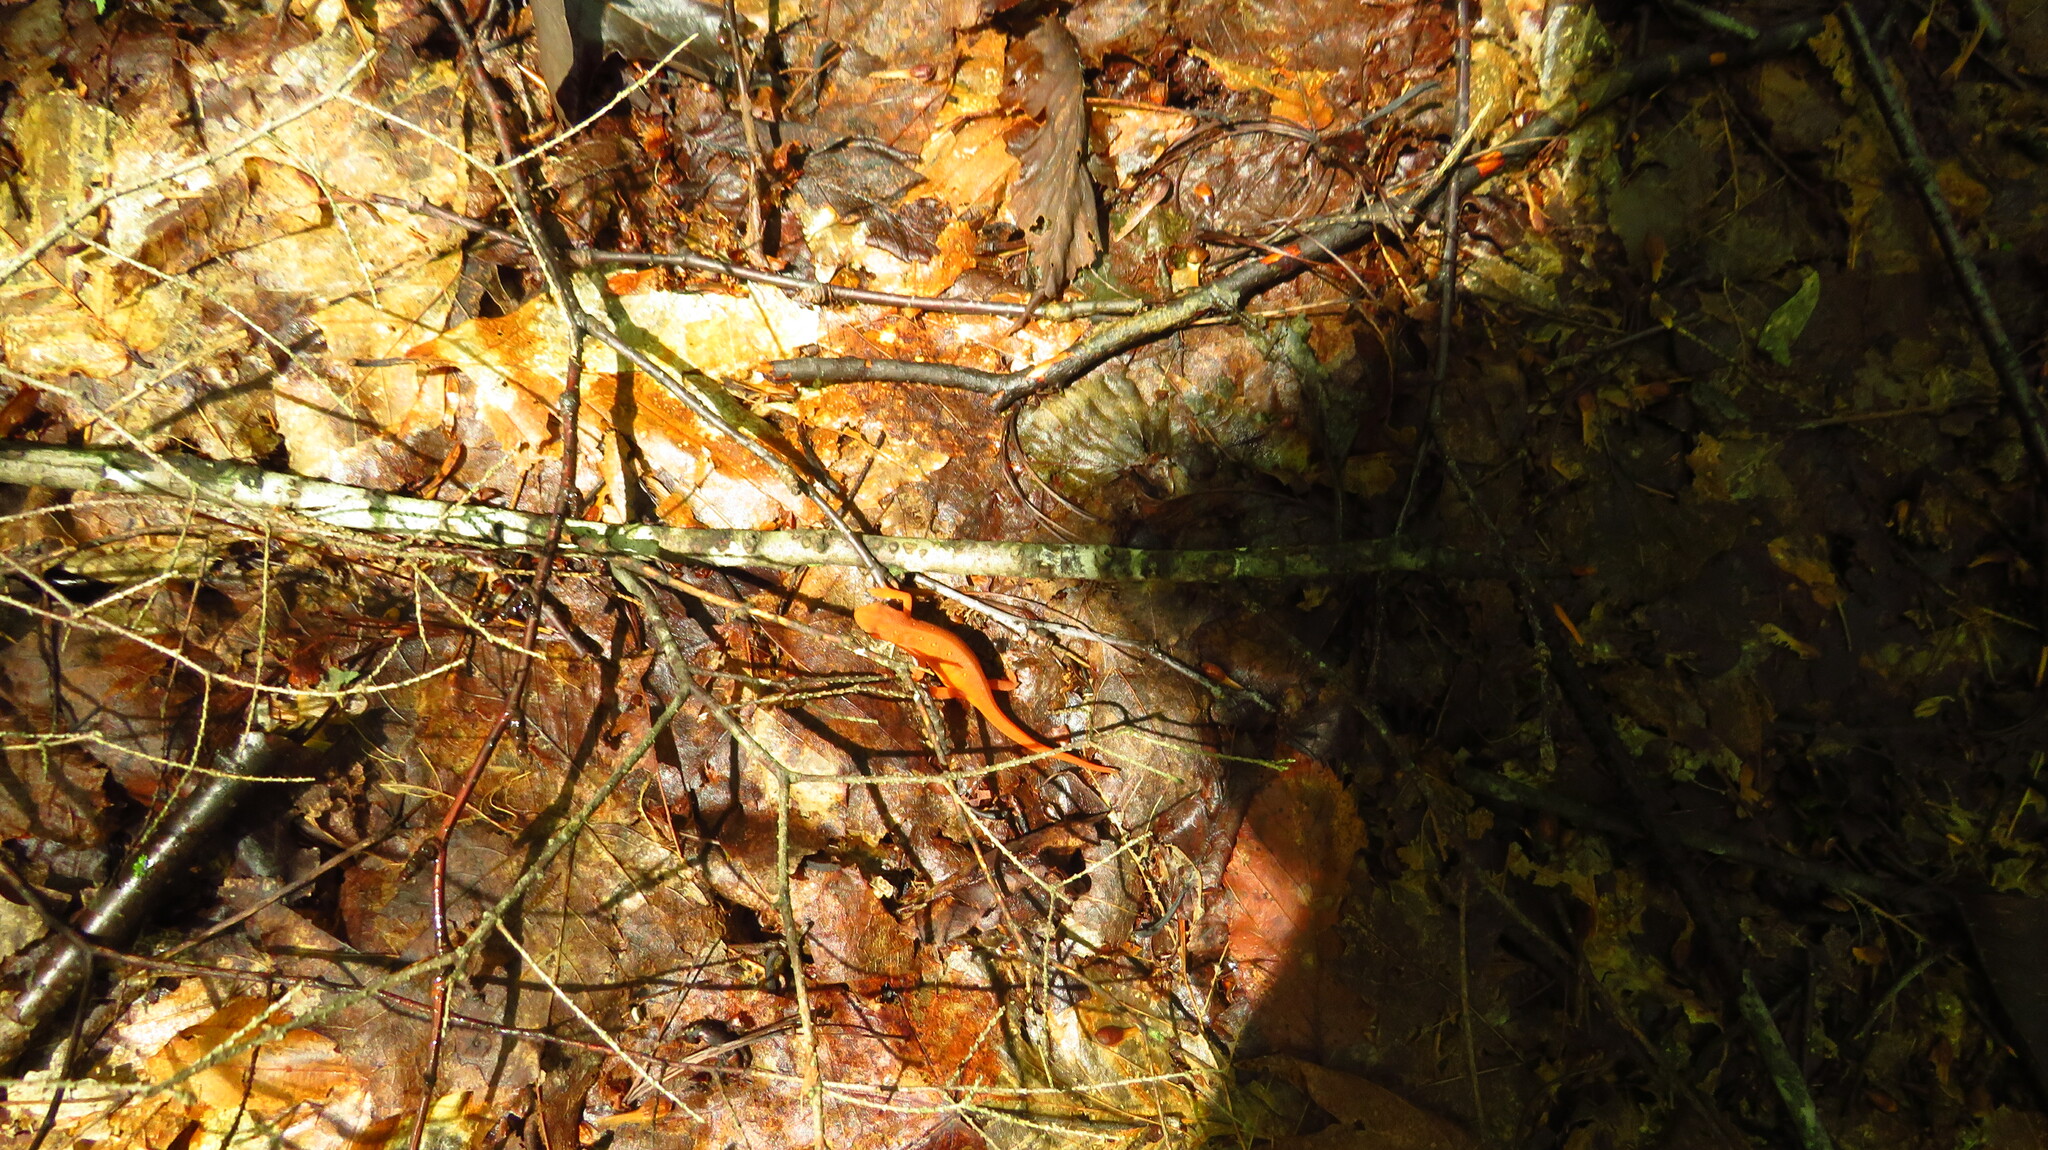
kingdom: Animalia
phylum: Chordata
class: Amphibia
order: Caudata
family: Salamandridae
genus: Notophthalmus
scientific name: Notophthalmus viridescens
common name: Eastern newt
